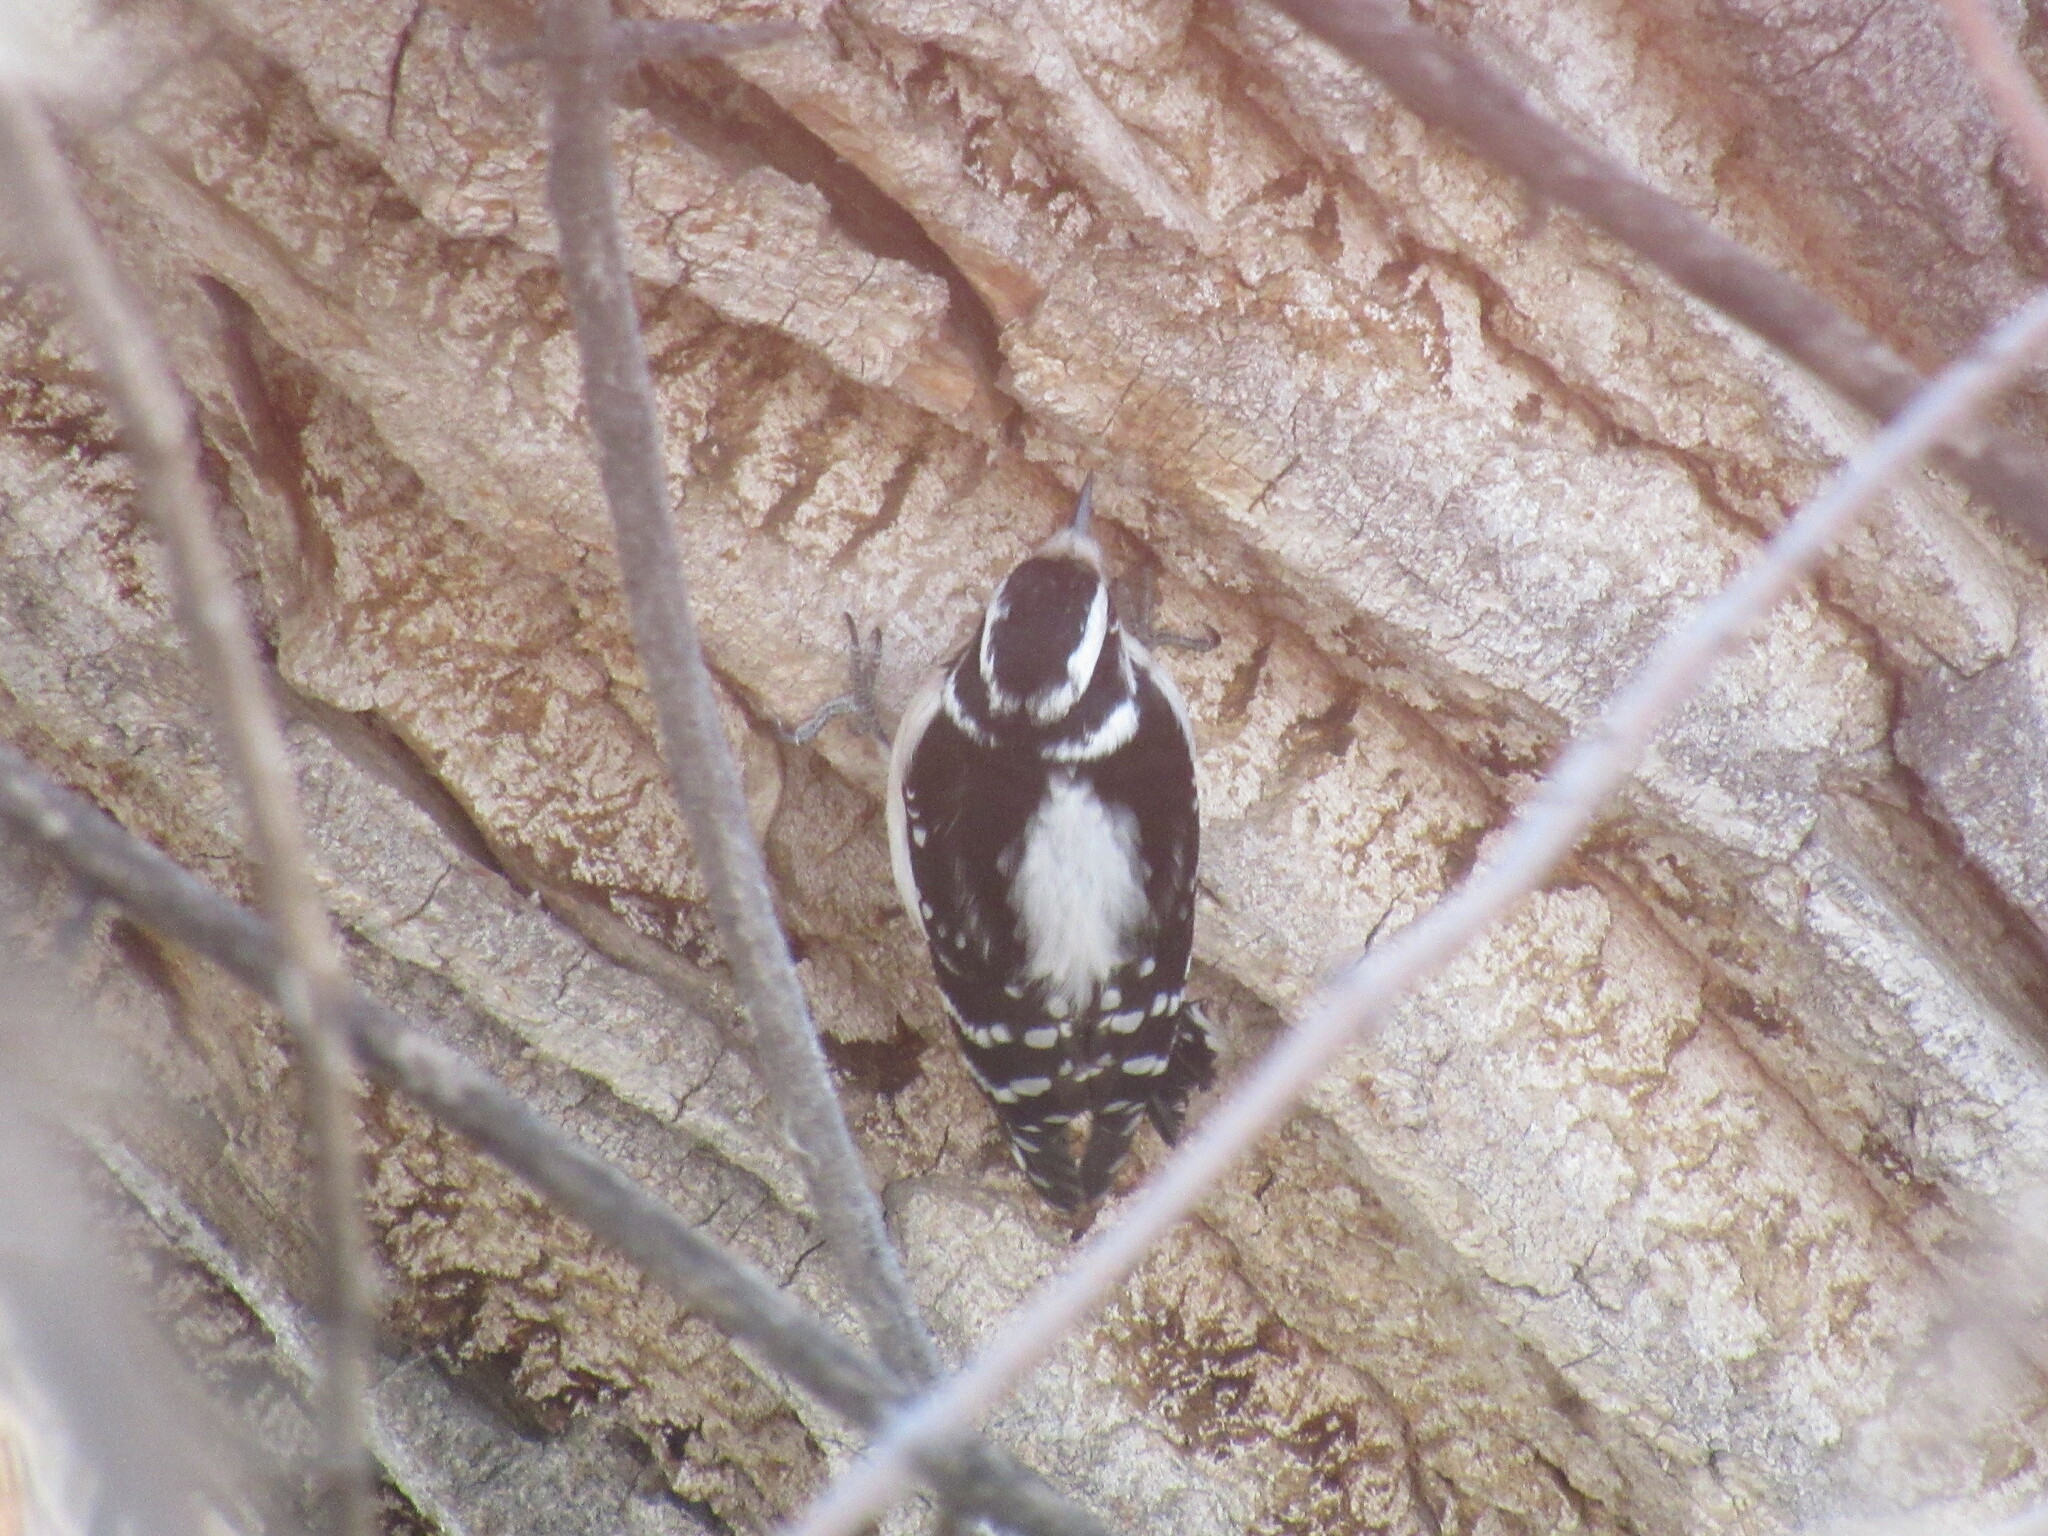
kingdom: Animalia
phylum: Chordata
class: Aves
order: Piciformes
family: Picidae
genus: Dryobates
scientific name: Dryobates pubescens
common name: Downy woodpecker
